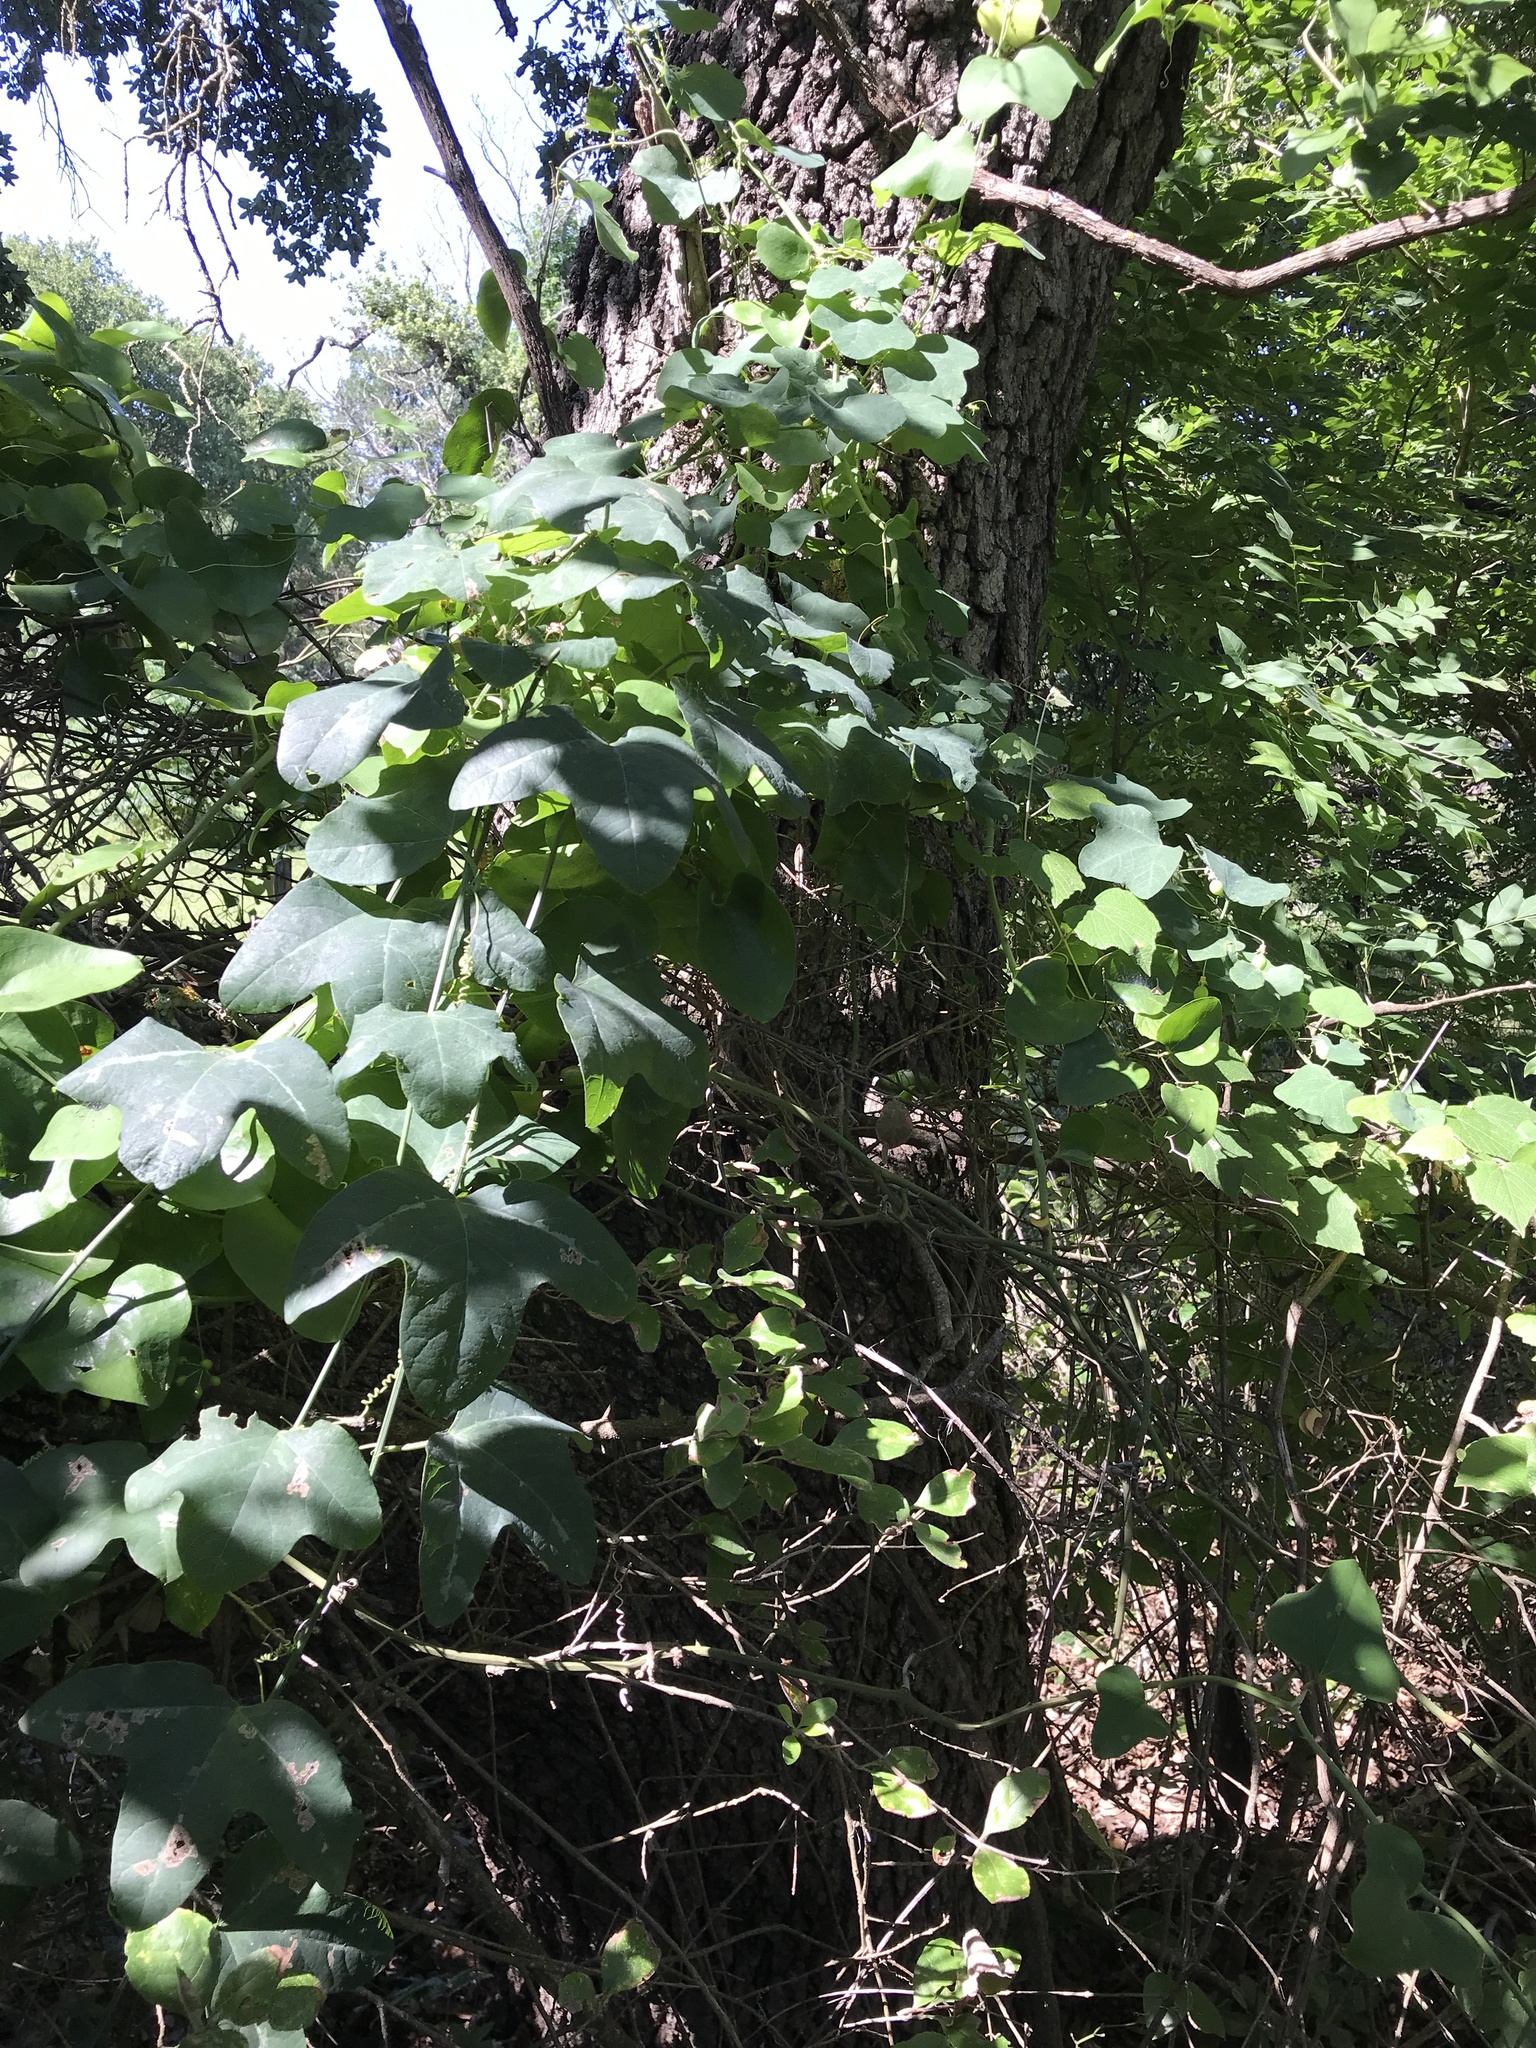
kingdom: Plantae
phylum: Tracheophyta
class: Magnoliopsida
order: Malpighiales
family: Passifloraceae
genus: Passiflora
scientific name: Passiflora lutea
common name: Yellow passionflower
